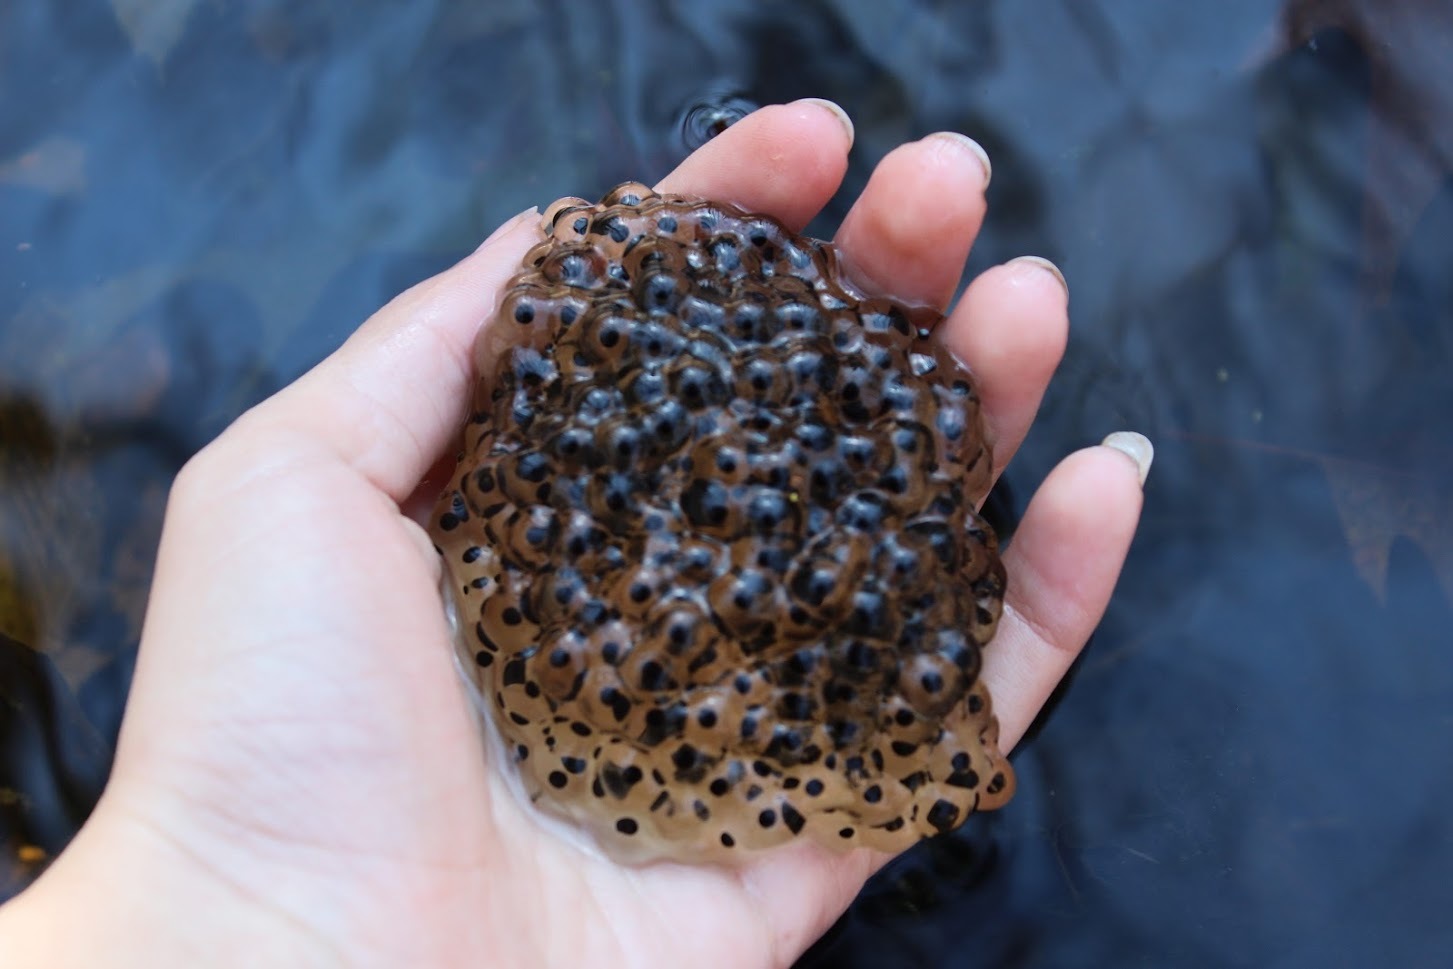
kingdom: Animalia
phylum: Chordata
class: Amphibia
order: Anura
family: Ranidae
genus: Lithobates
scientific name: Lithobates sylvaticus
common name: Wood frog
